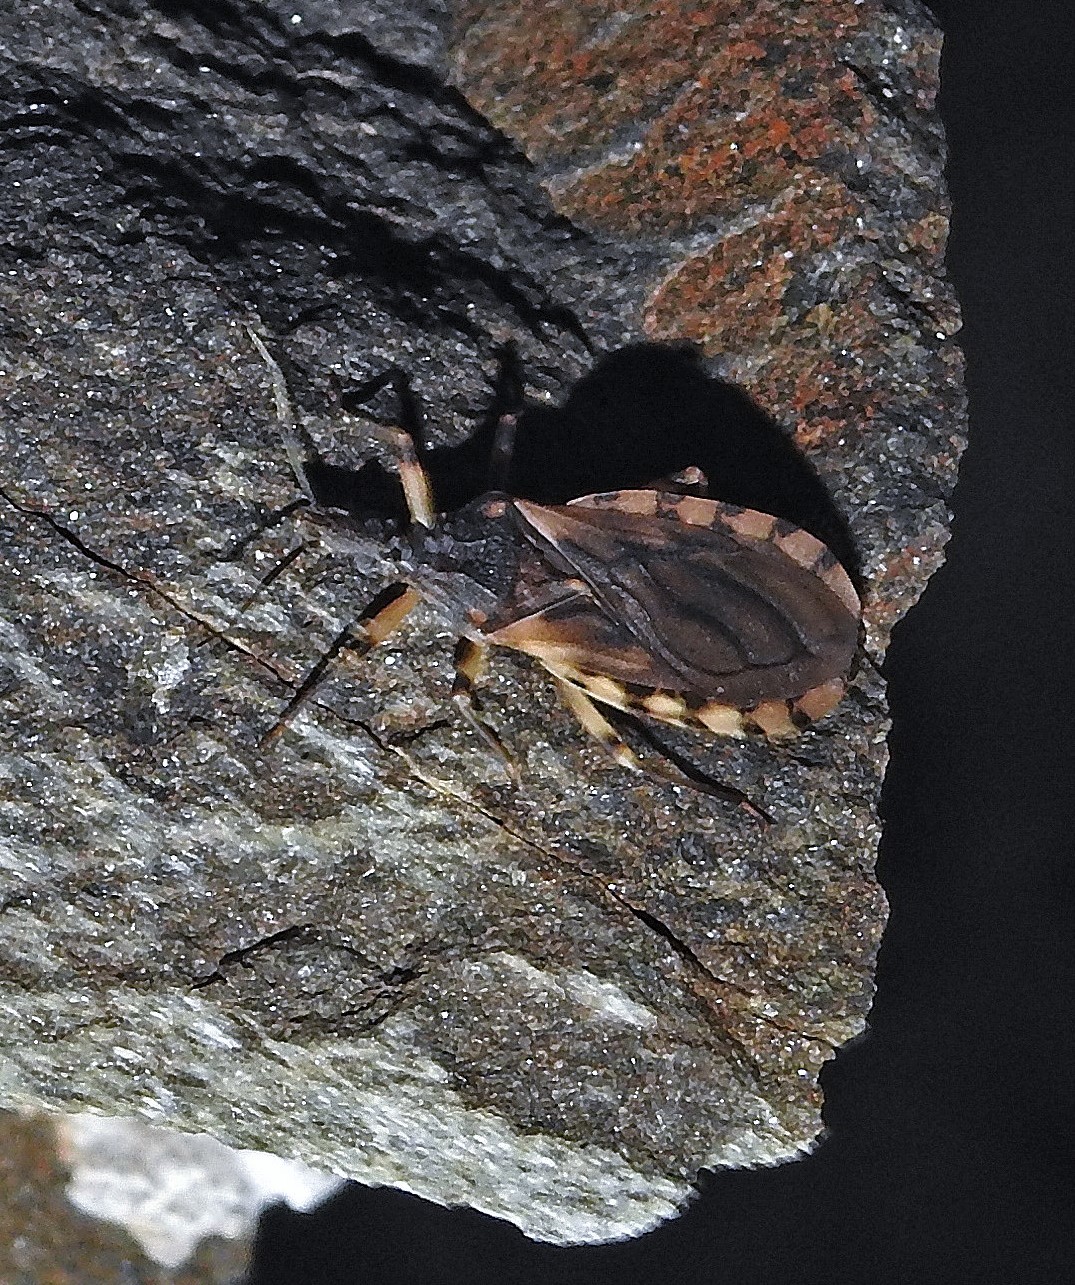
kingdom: Animalia
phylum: Arthropoda
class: Insecta
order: Hemiptera
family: Reduviidae
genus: Triatoma
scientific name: Triatoma guasayana
